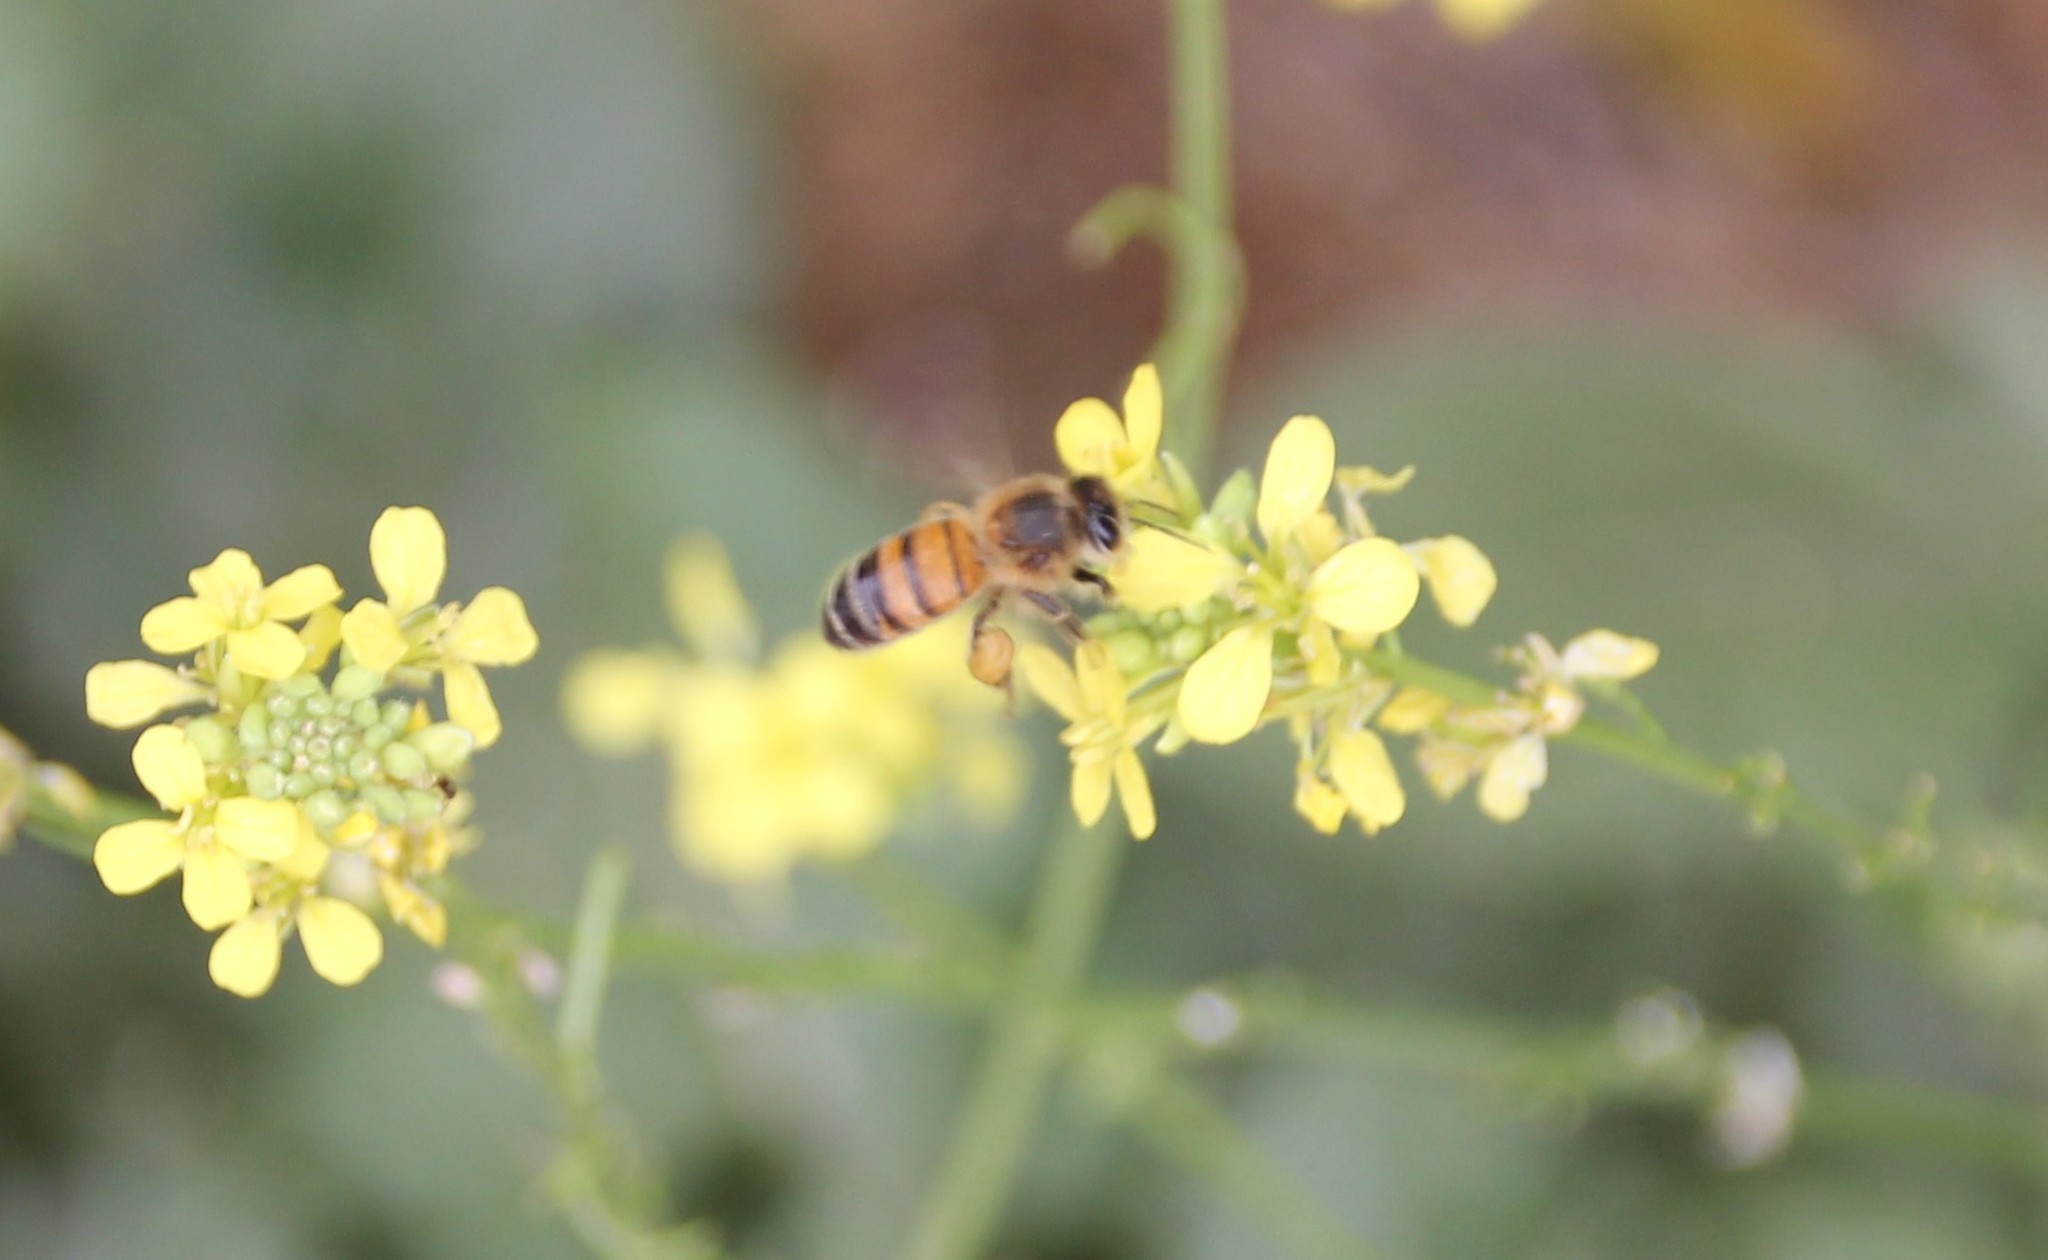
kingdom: Animalia
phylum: Arthropoda
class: Insecta
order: Hymenoptera
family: Apidae
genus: Apis
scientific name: Apis mellifera
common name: Honey bee
